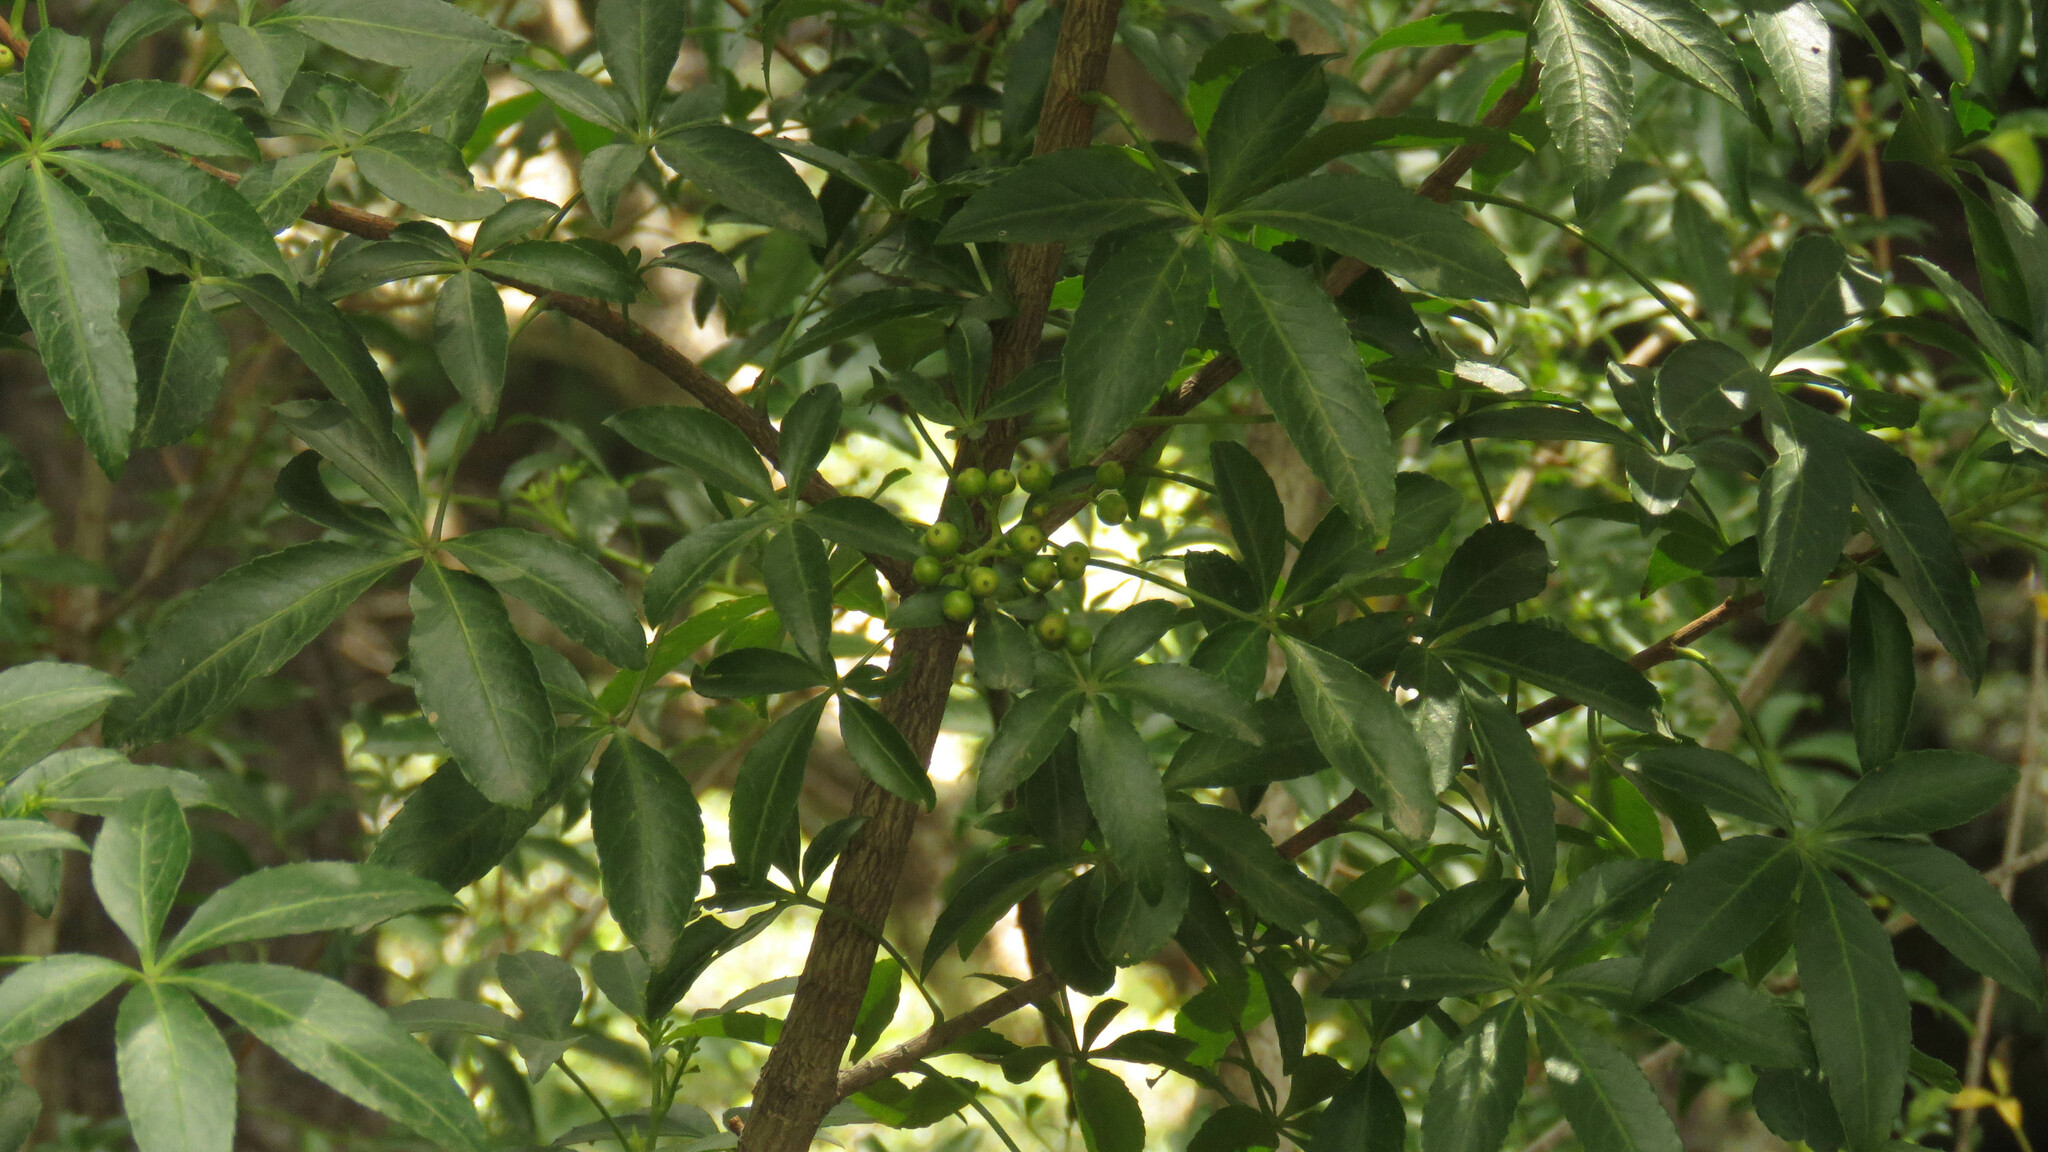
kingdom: Plantae
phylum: Tracheophyta
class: Magnoliopsida
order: Apiales
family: Araliaceae
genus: Raukaua
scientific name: Raukaua laetevirens
